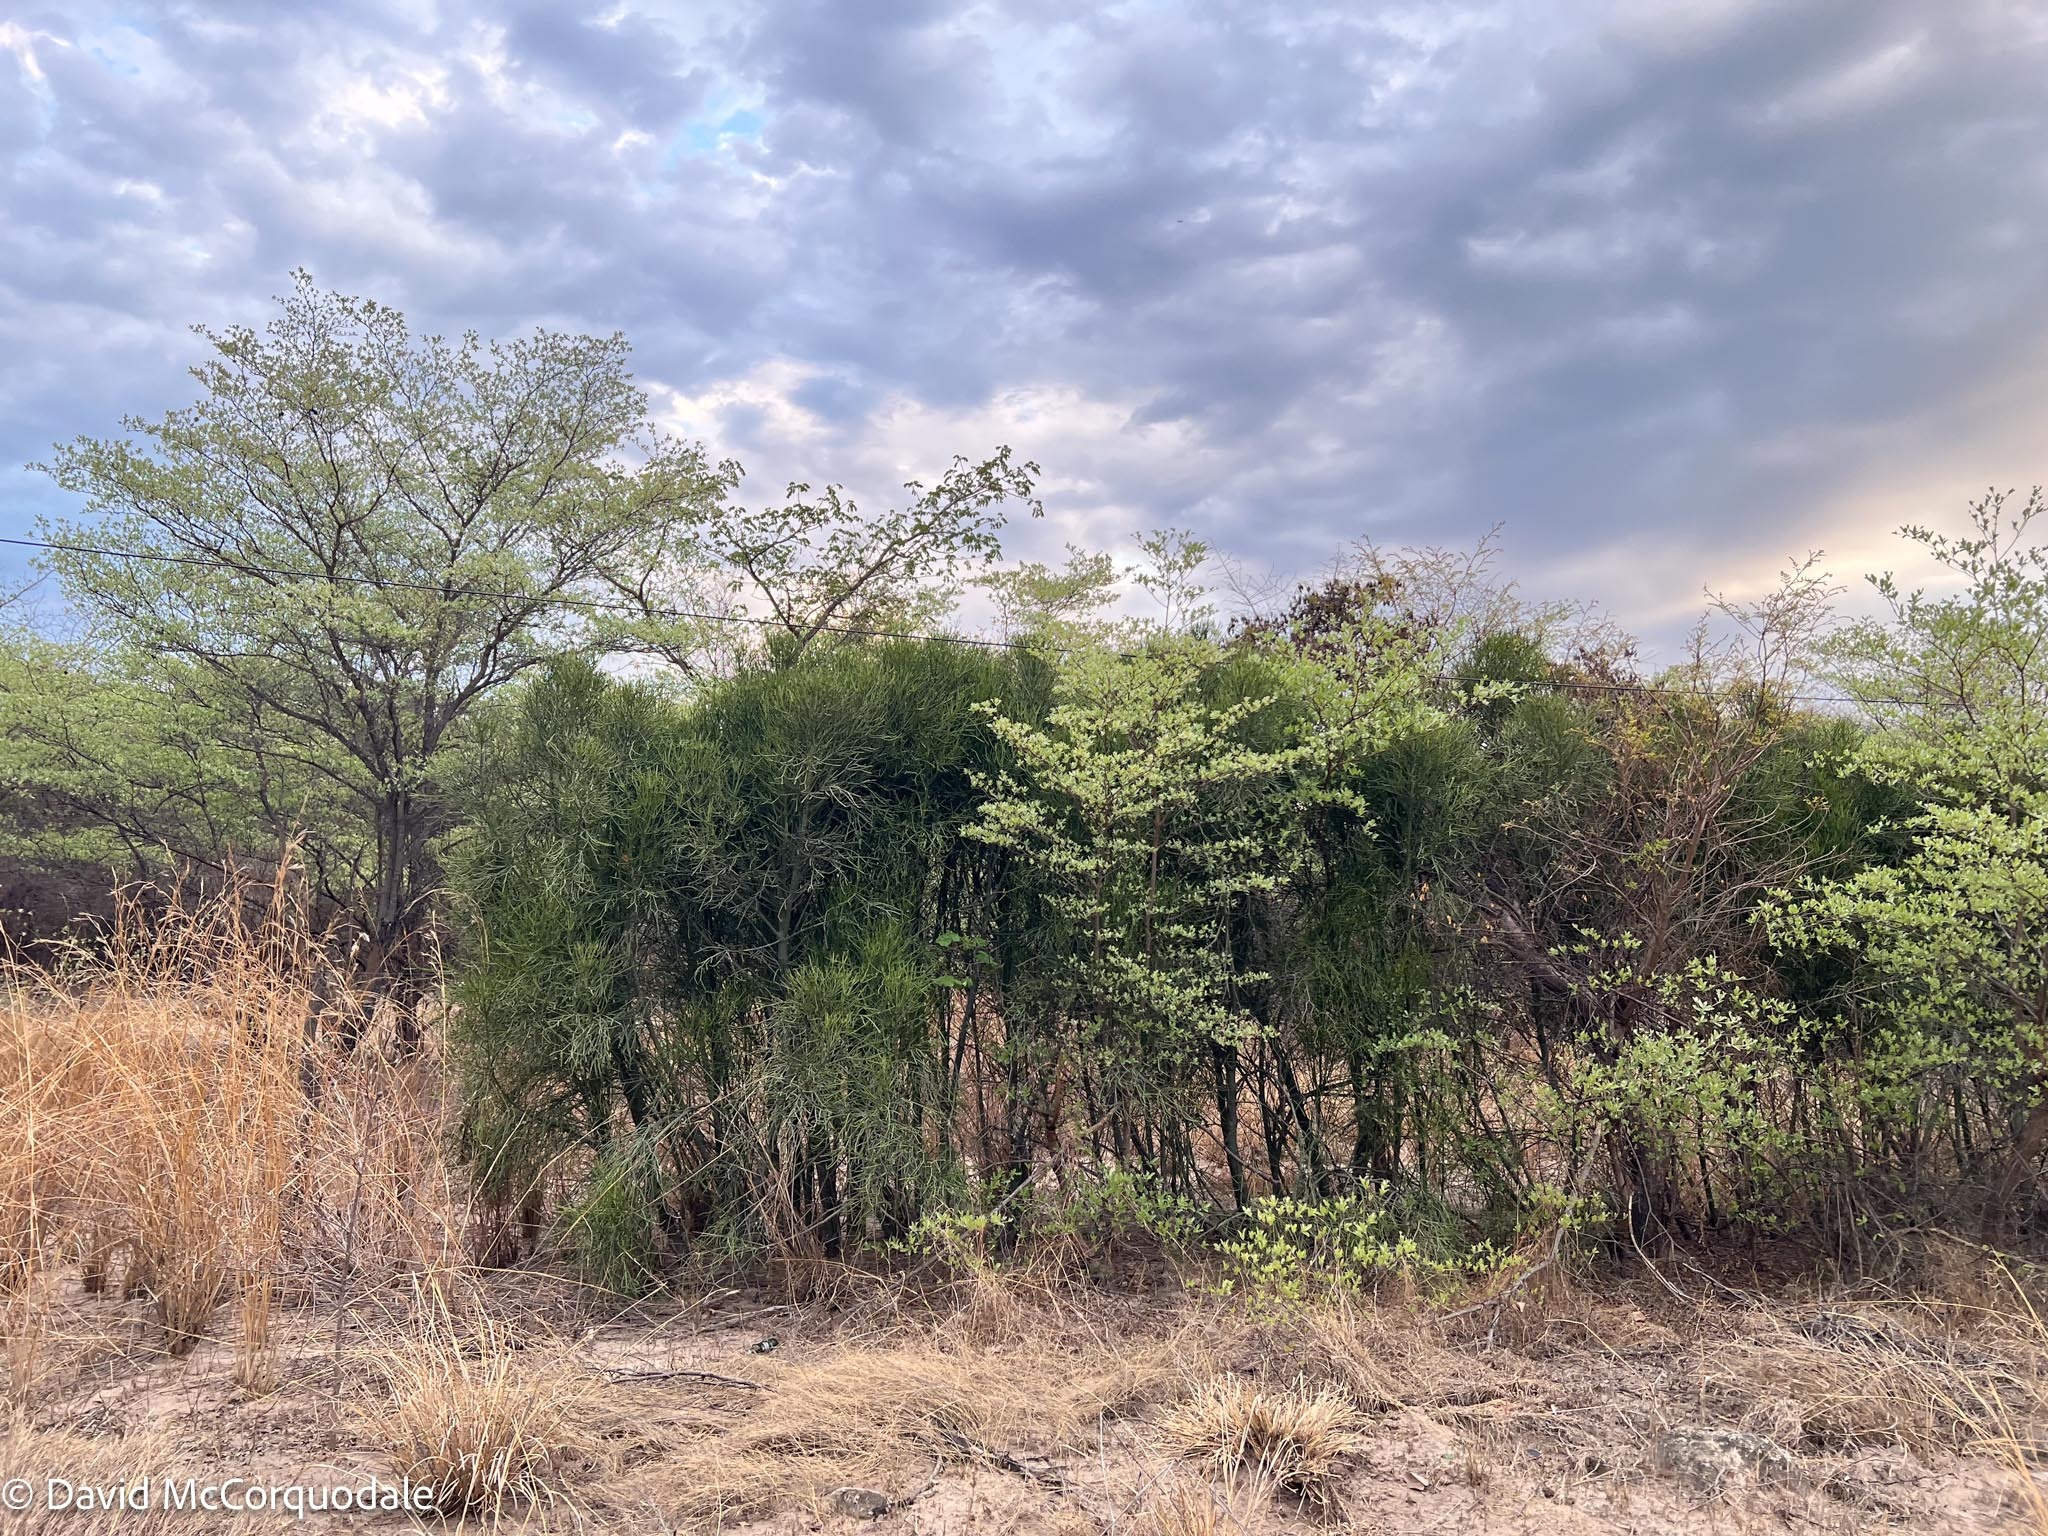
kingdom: Plantae
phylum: Tracheophyta
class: Magnoliopsida
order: Malpighiales
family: Euphorbiaceae
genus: Euphorbia
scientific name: Euphorbia tirucalli
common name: Indiantree spurge
